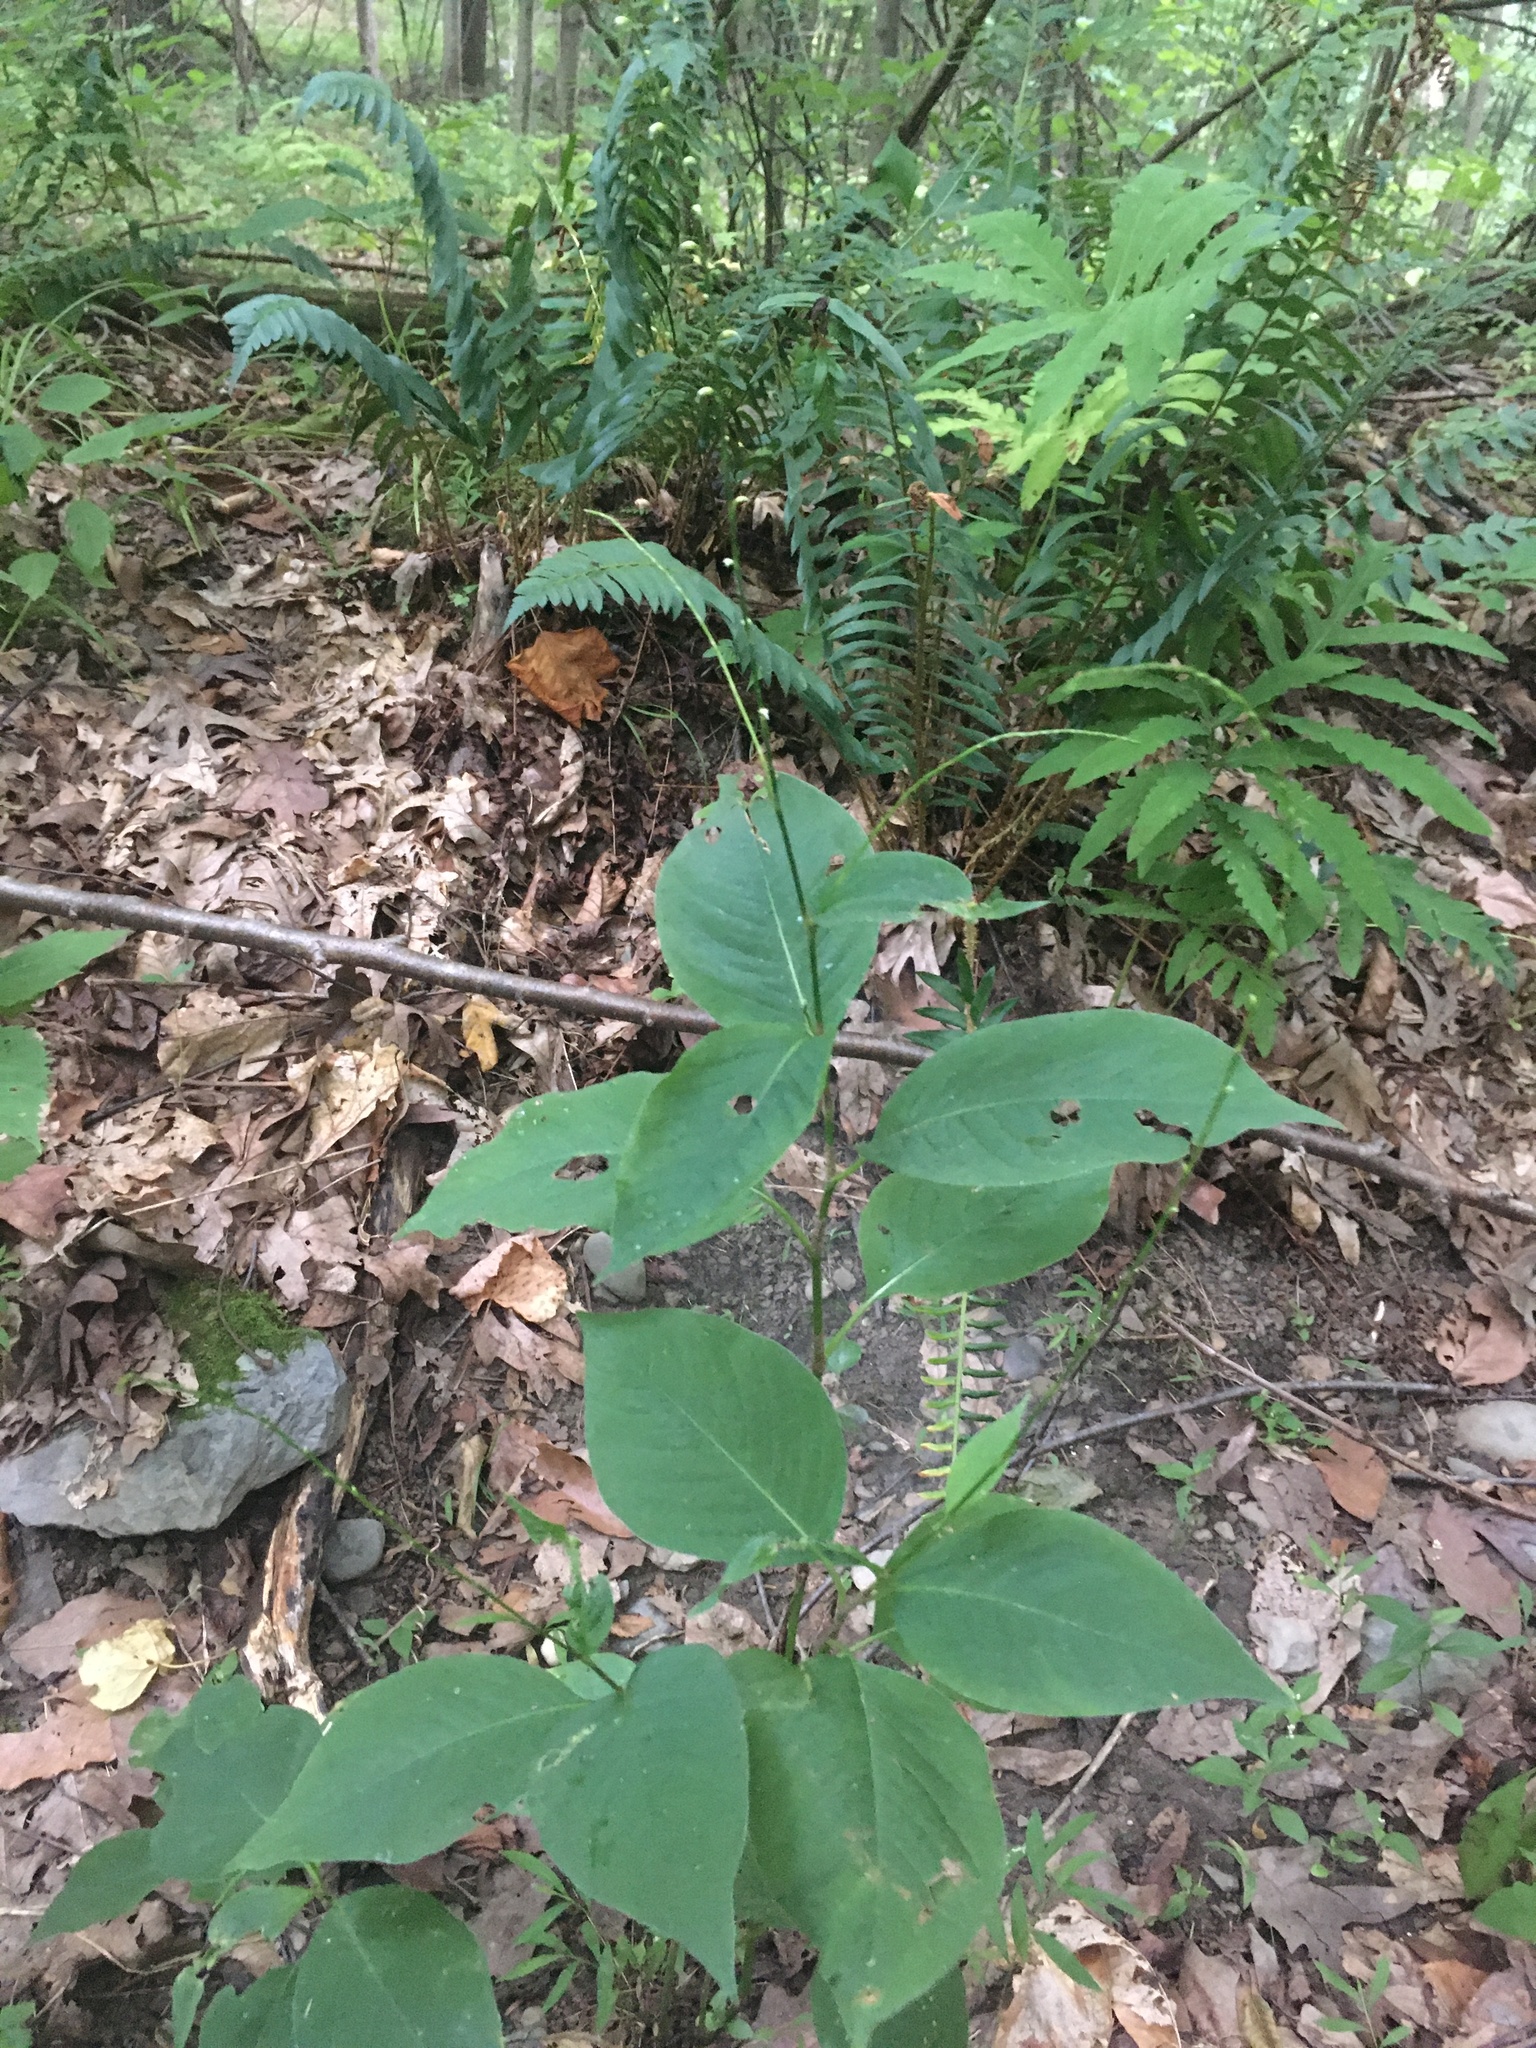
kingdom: Plantae
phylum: Tracheophyta
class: Magnoliopsida
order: Caryophyllales
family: Polygonaceae
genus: Persicaria
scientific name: Persicaria virginiana
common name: Jumpseed
